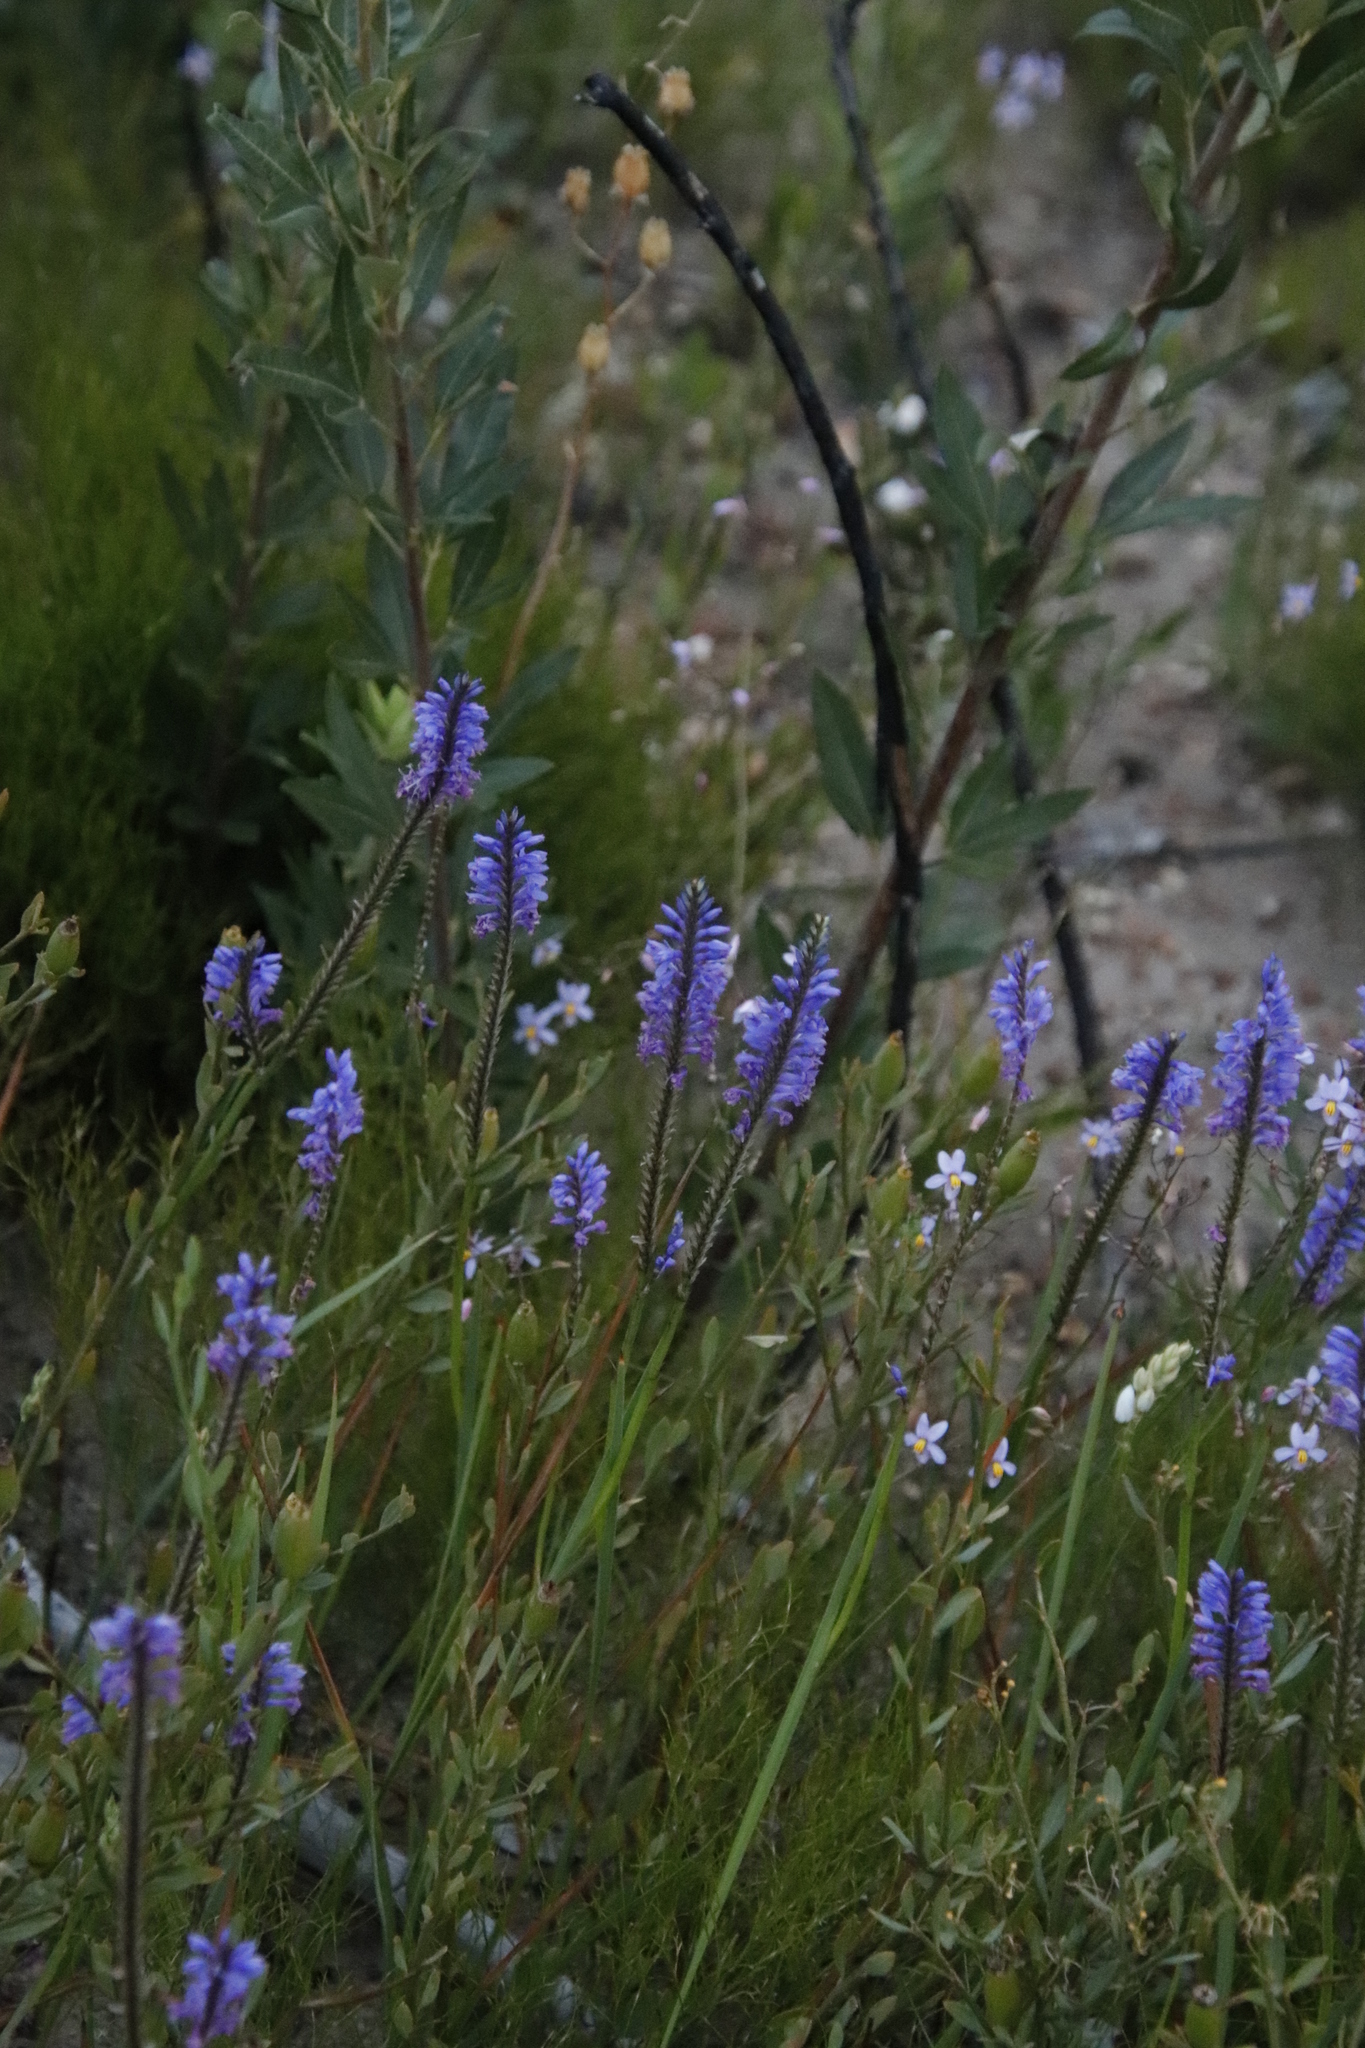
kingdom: Plantae
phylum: Tracheophyta
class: Magnoliopsida
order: Sapindales
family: Anacardiaceae
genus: Searsia
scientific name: Searsia angustifolia
